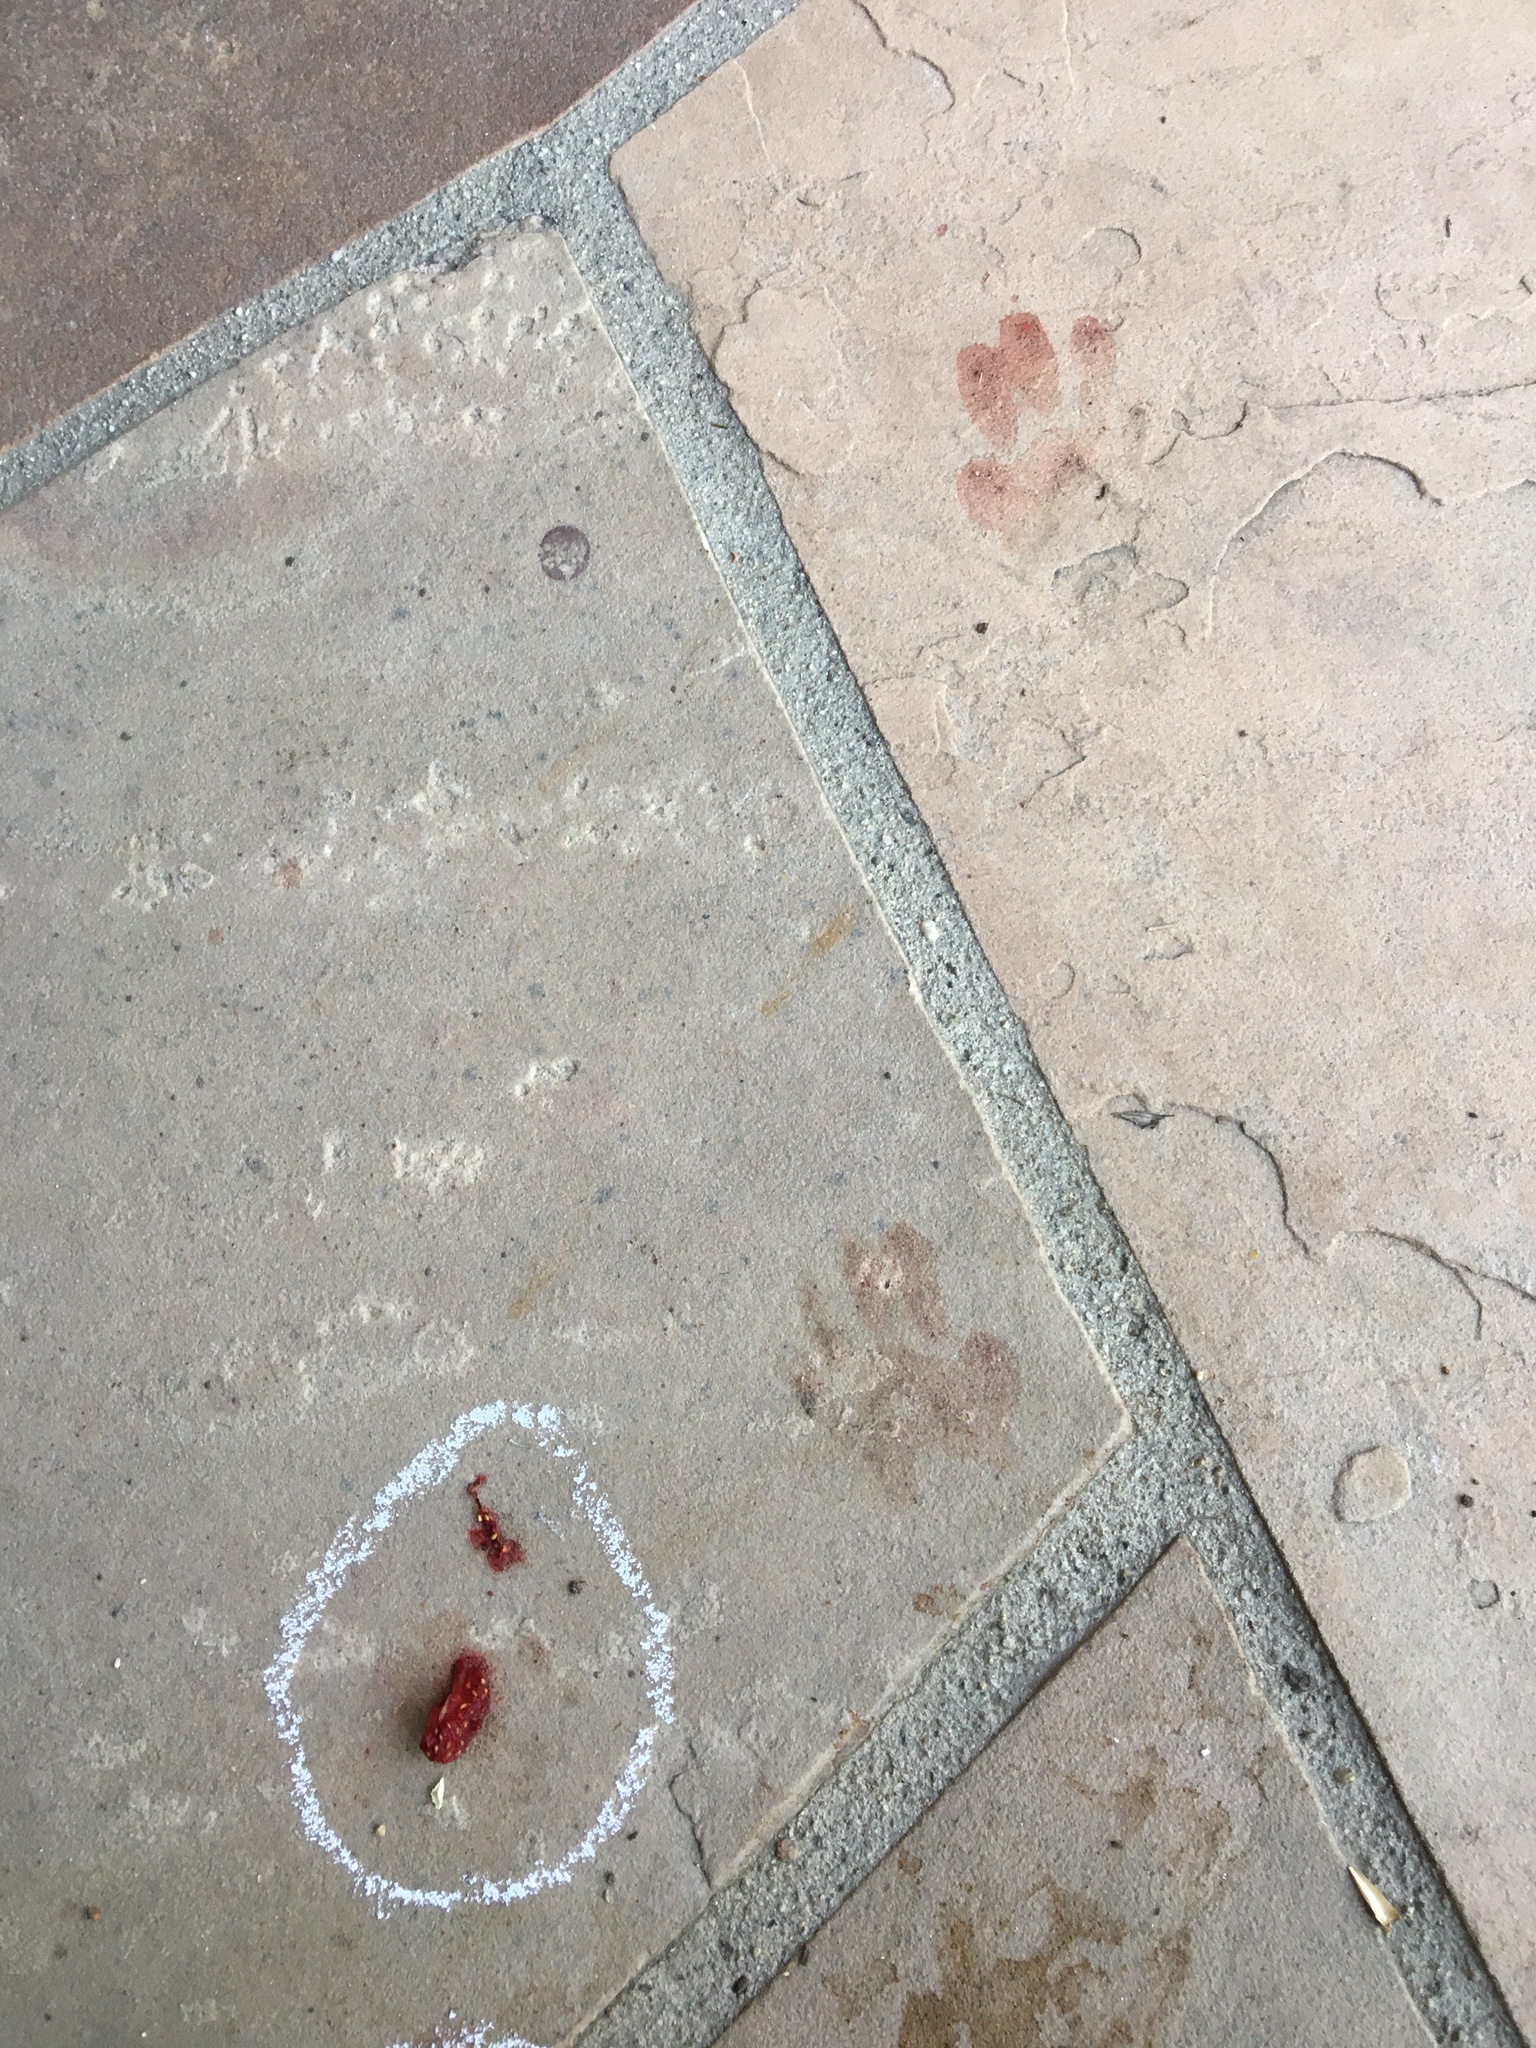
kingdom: Animalia
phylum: Chordata
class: Mammalia
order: Carnivora
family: Procyonidae
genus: Procyon
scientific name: Procyon lotor
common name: Raccoon
